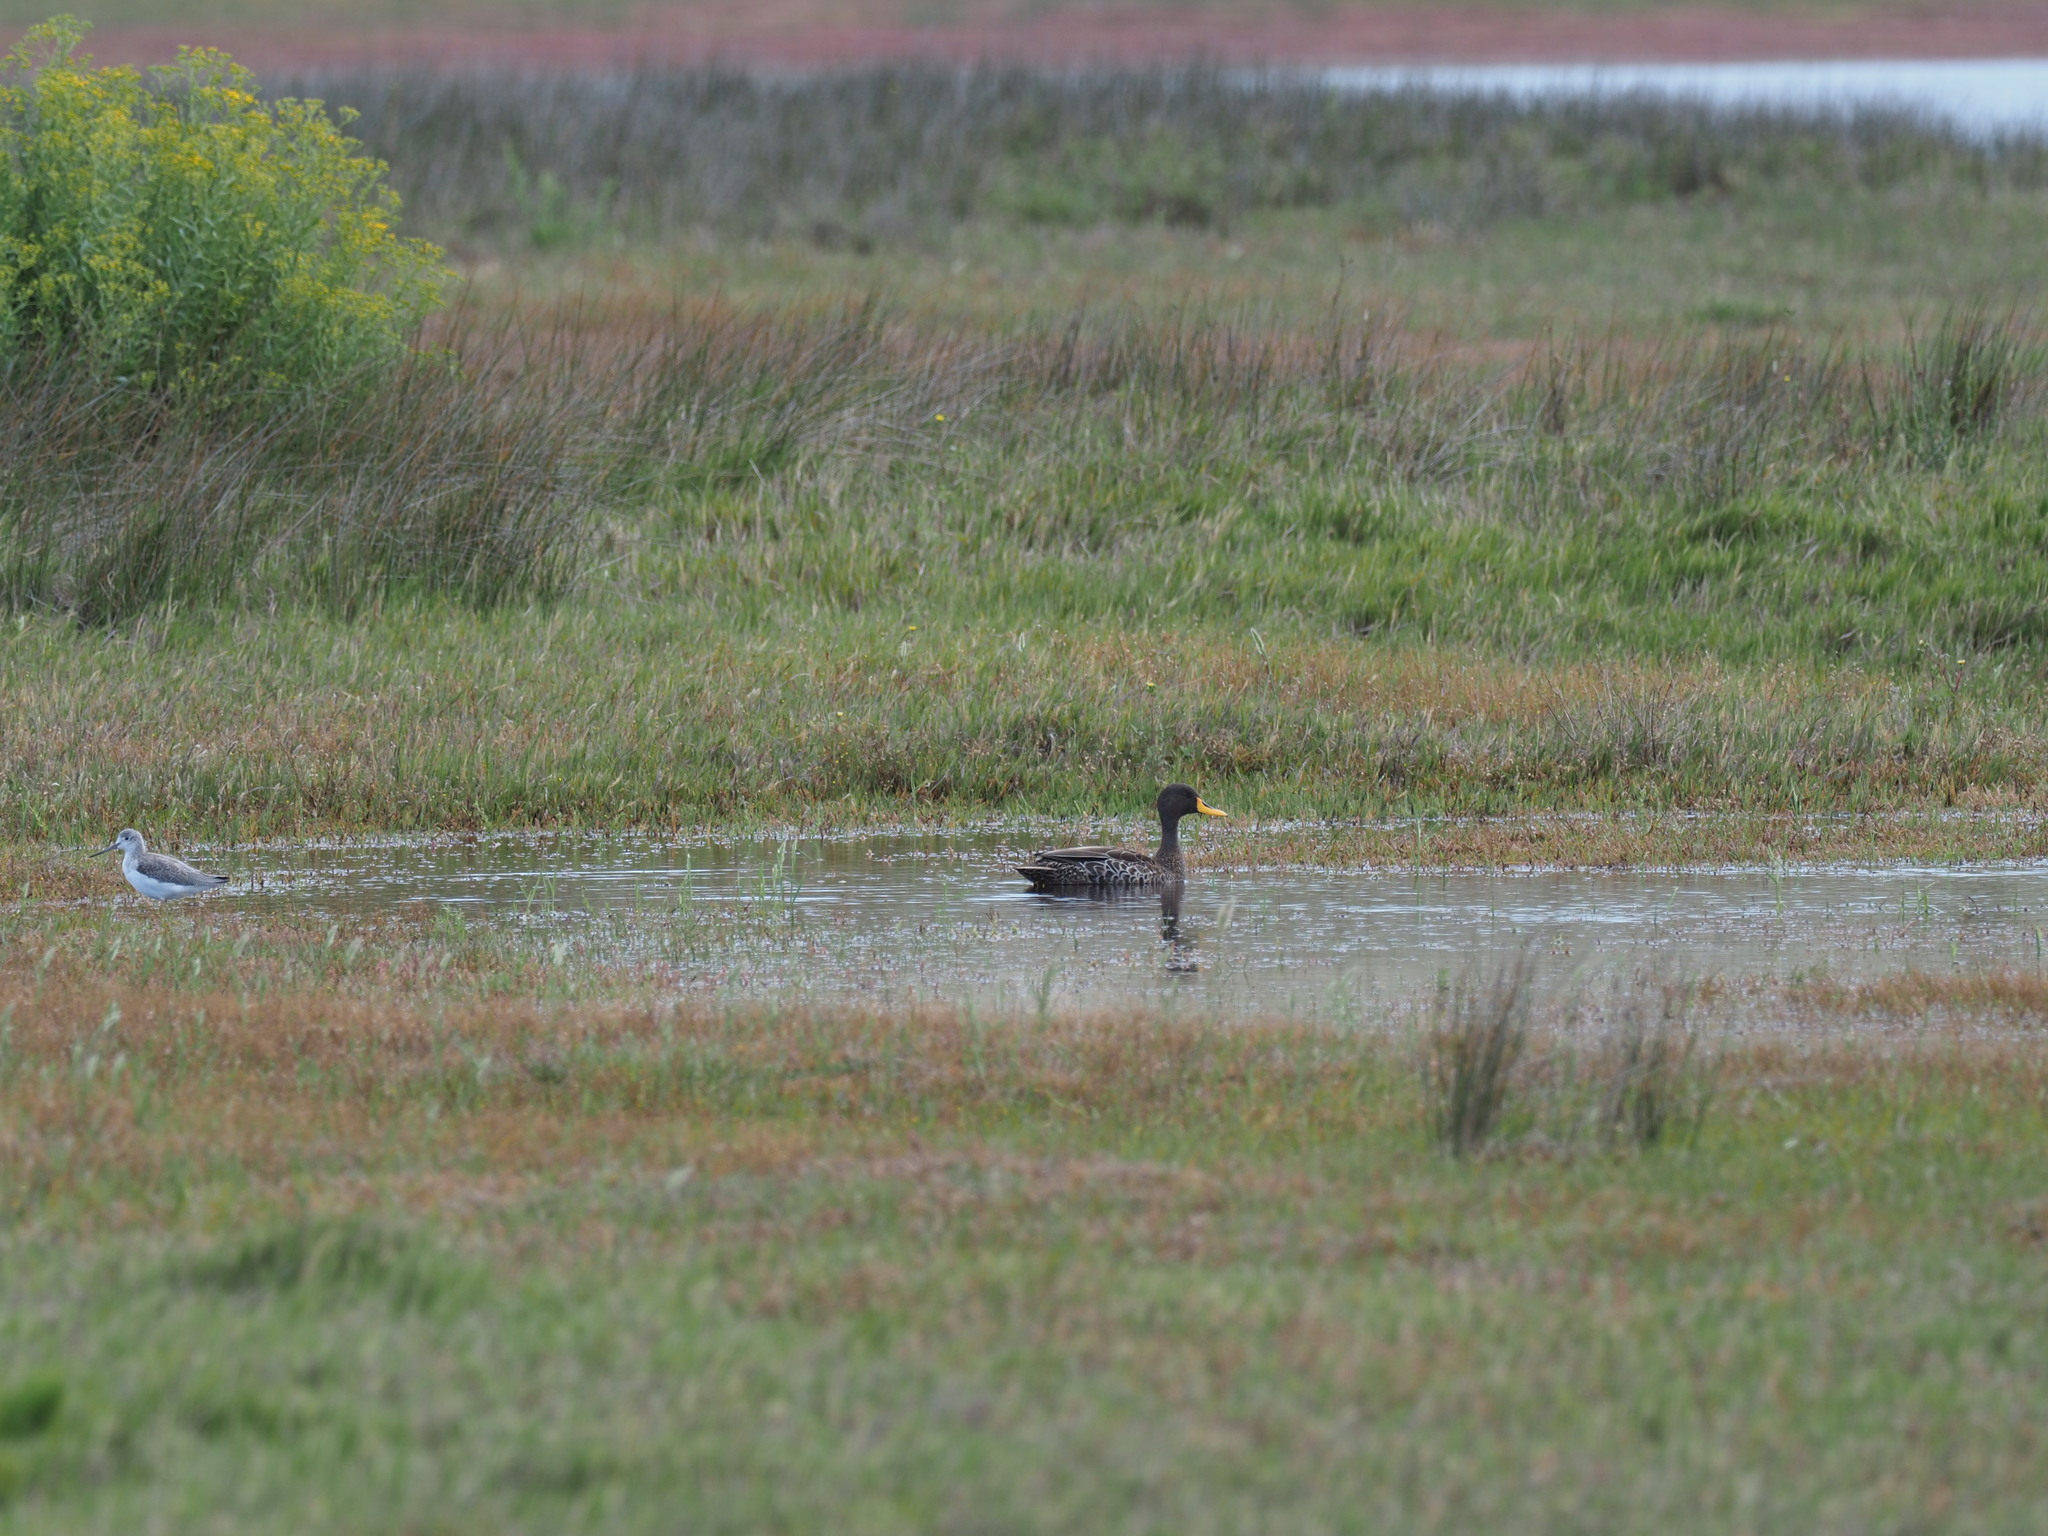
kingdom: Animalia
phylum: Chordata
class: Aves
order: Anseriformes
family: Anatidae
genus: Anas
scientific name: Anas undulata
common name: Yellow-billed duck
